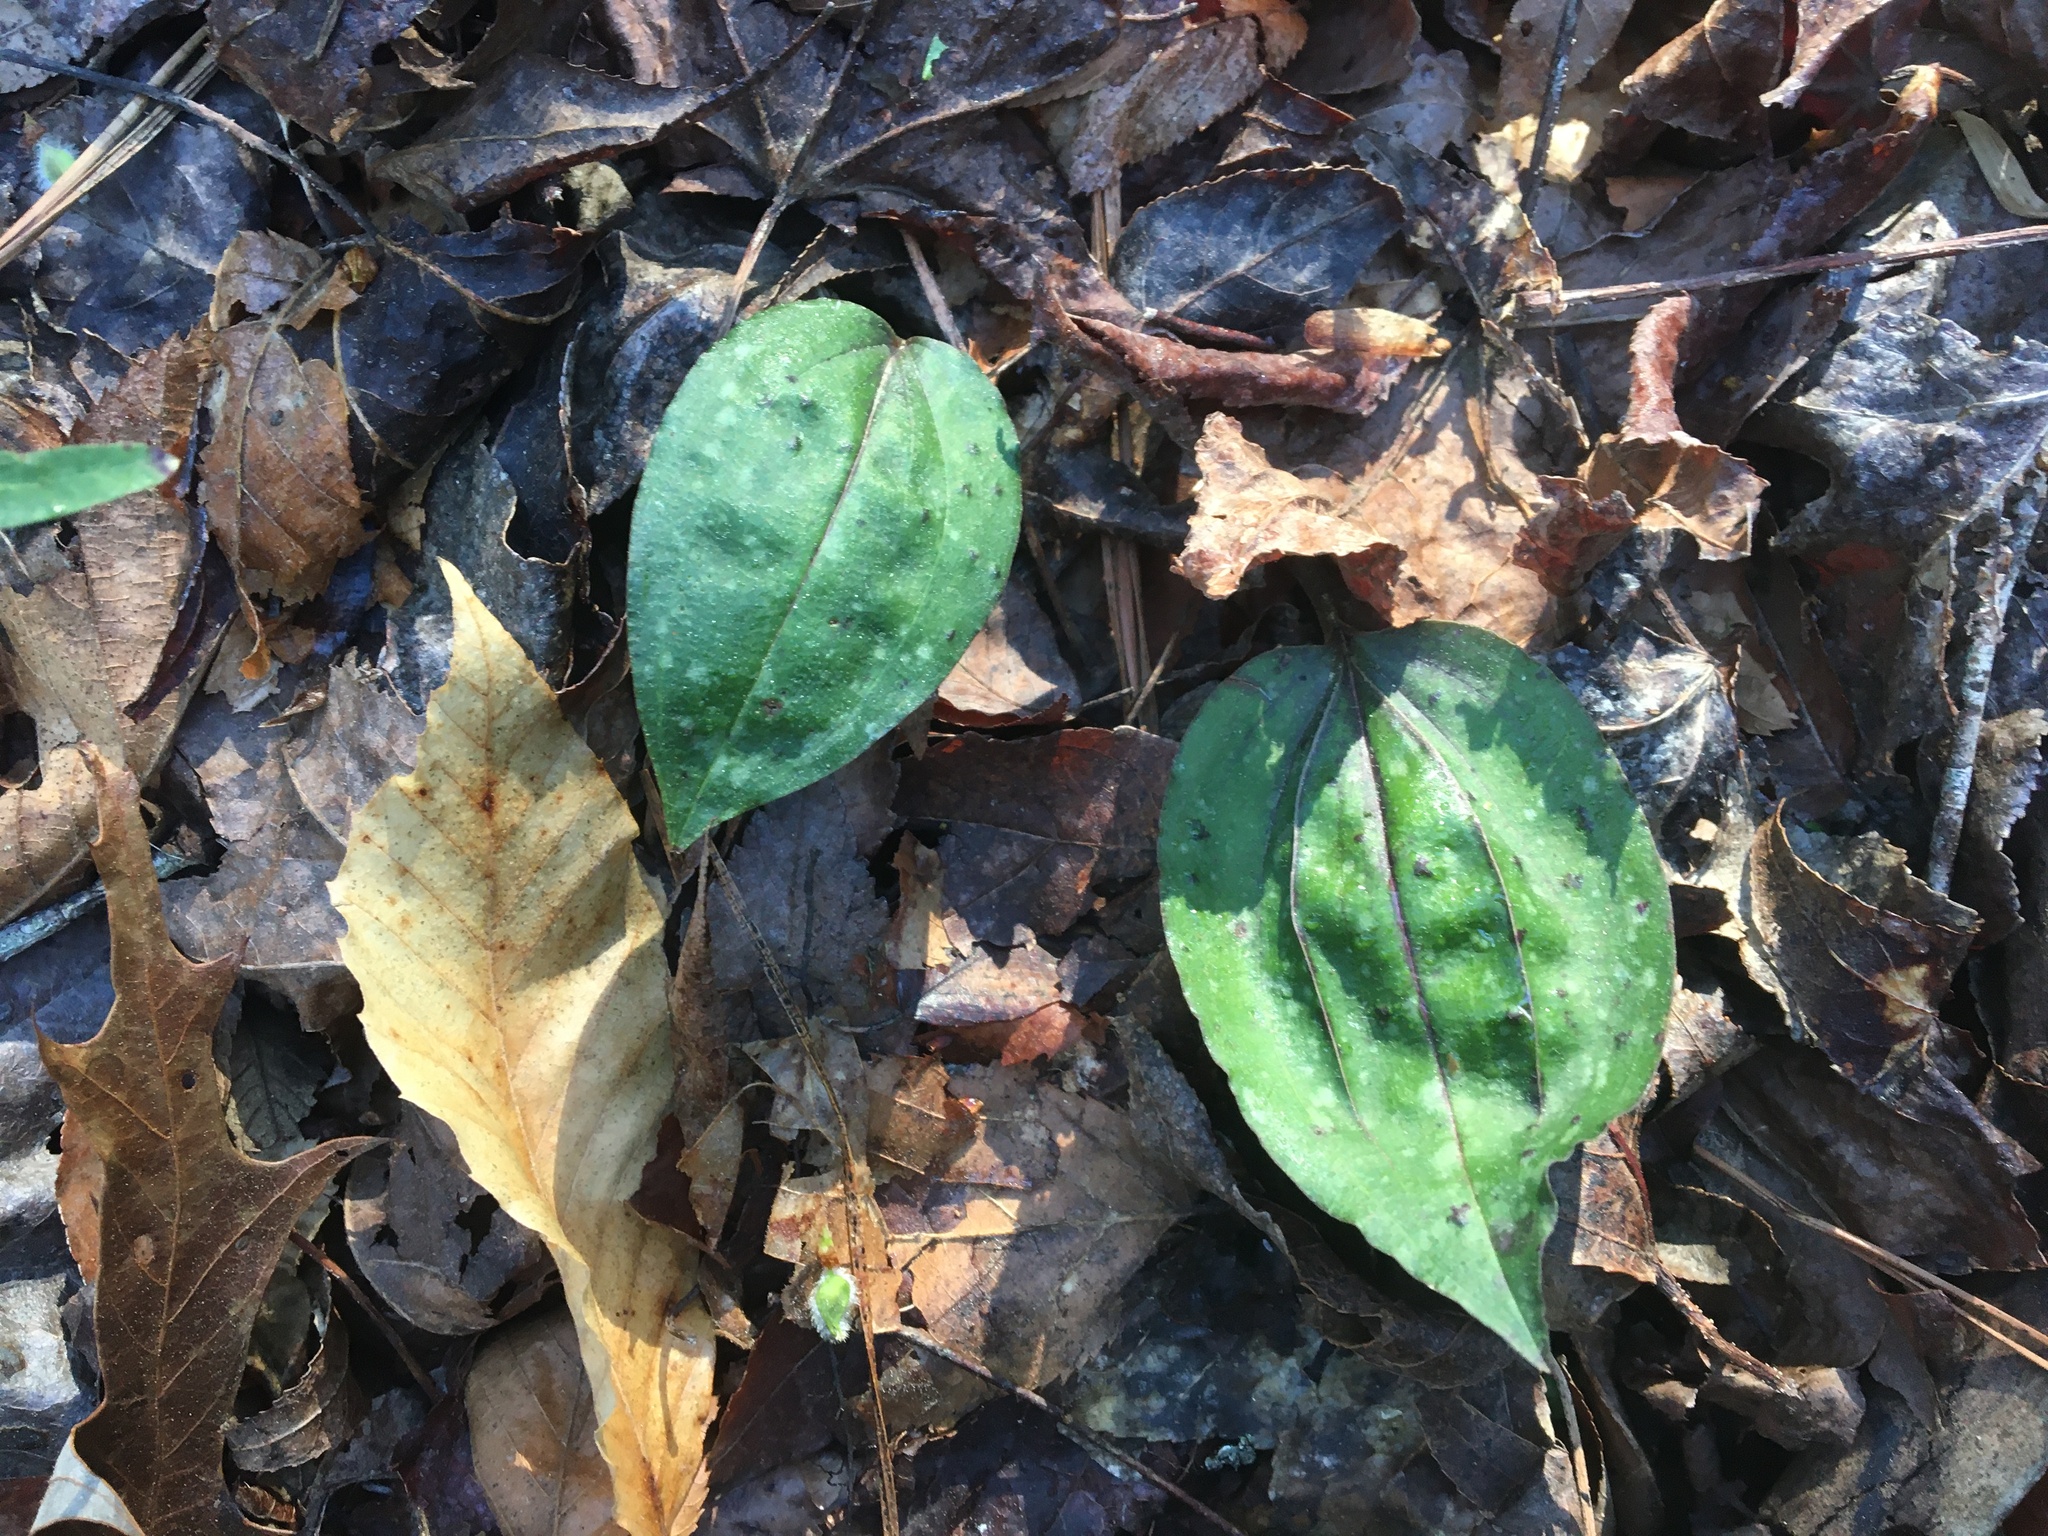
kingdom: Plantae
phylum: Tracheophyta
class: Liliopsida
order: Asparagales
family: Orchidaceae
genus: Tipularia
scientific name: Tipularia discolor
